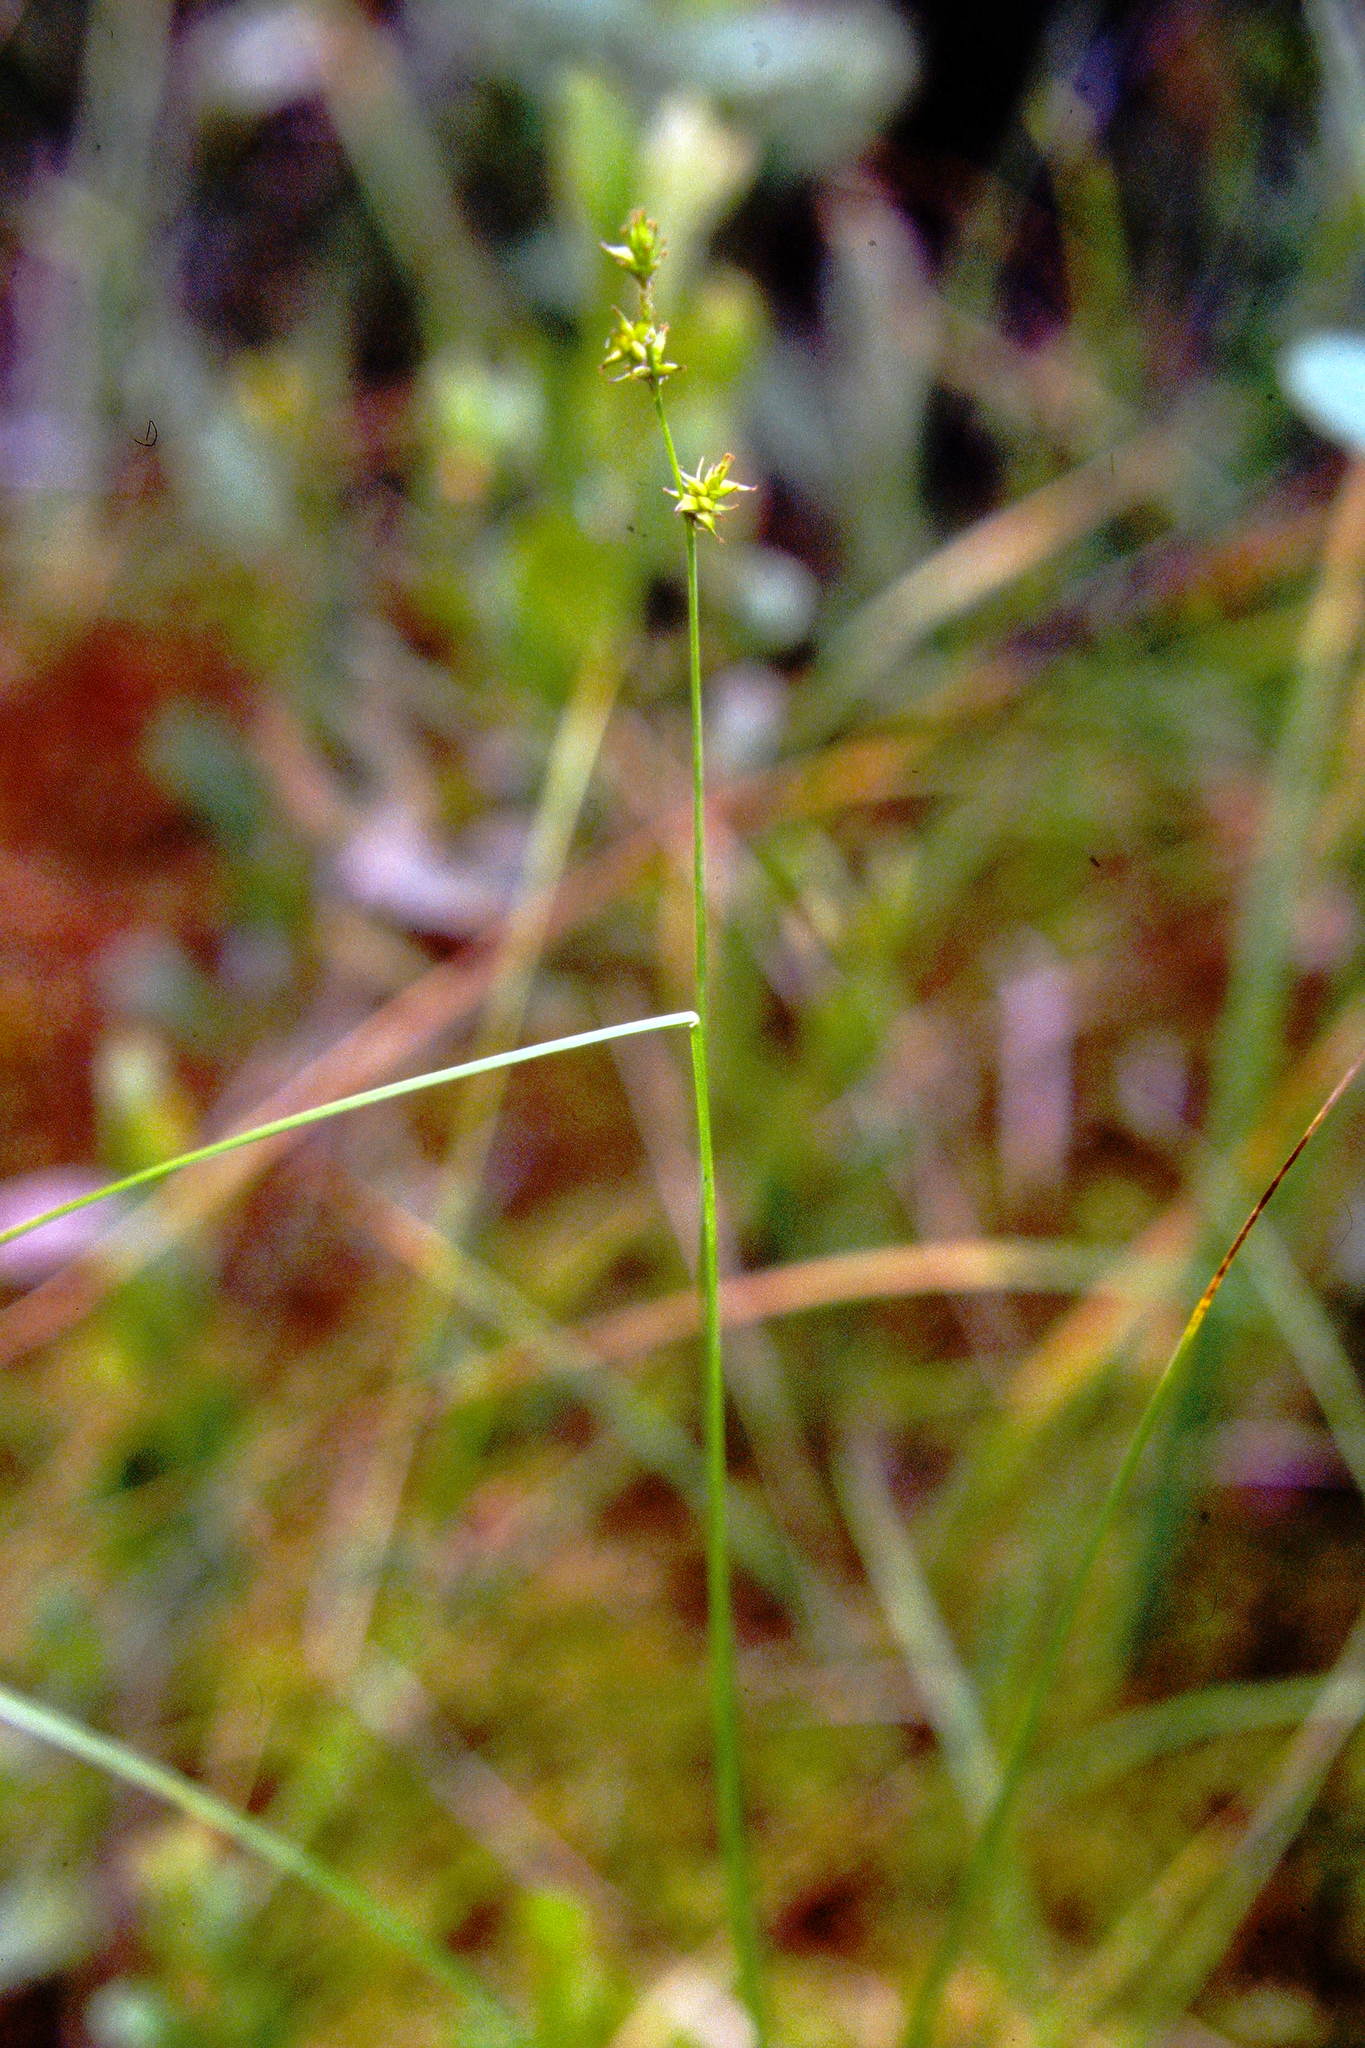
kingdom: Plantae
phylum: Tracheophyta
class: Liliopsida
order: Poales
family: Cyperaceae
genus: Carex
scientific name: Carex interior
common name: Inland sedge
